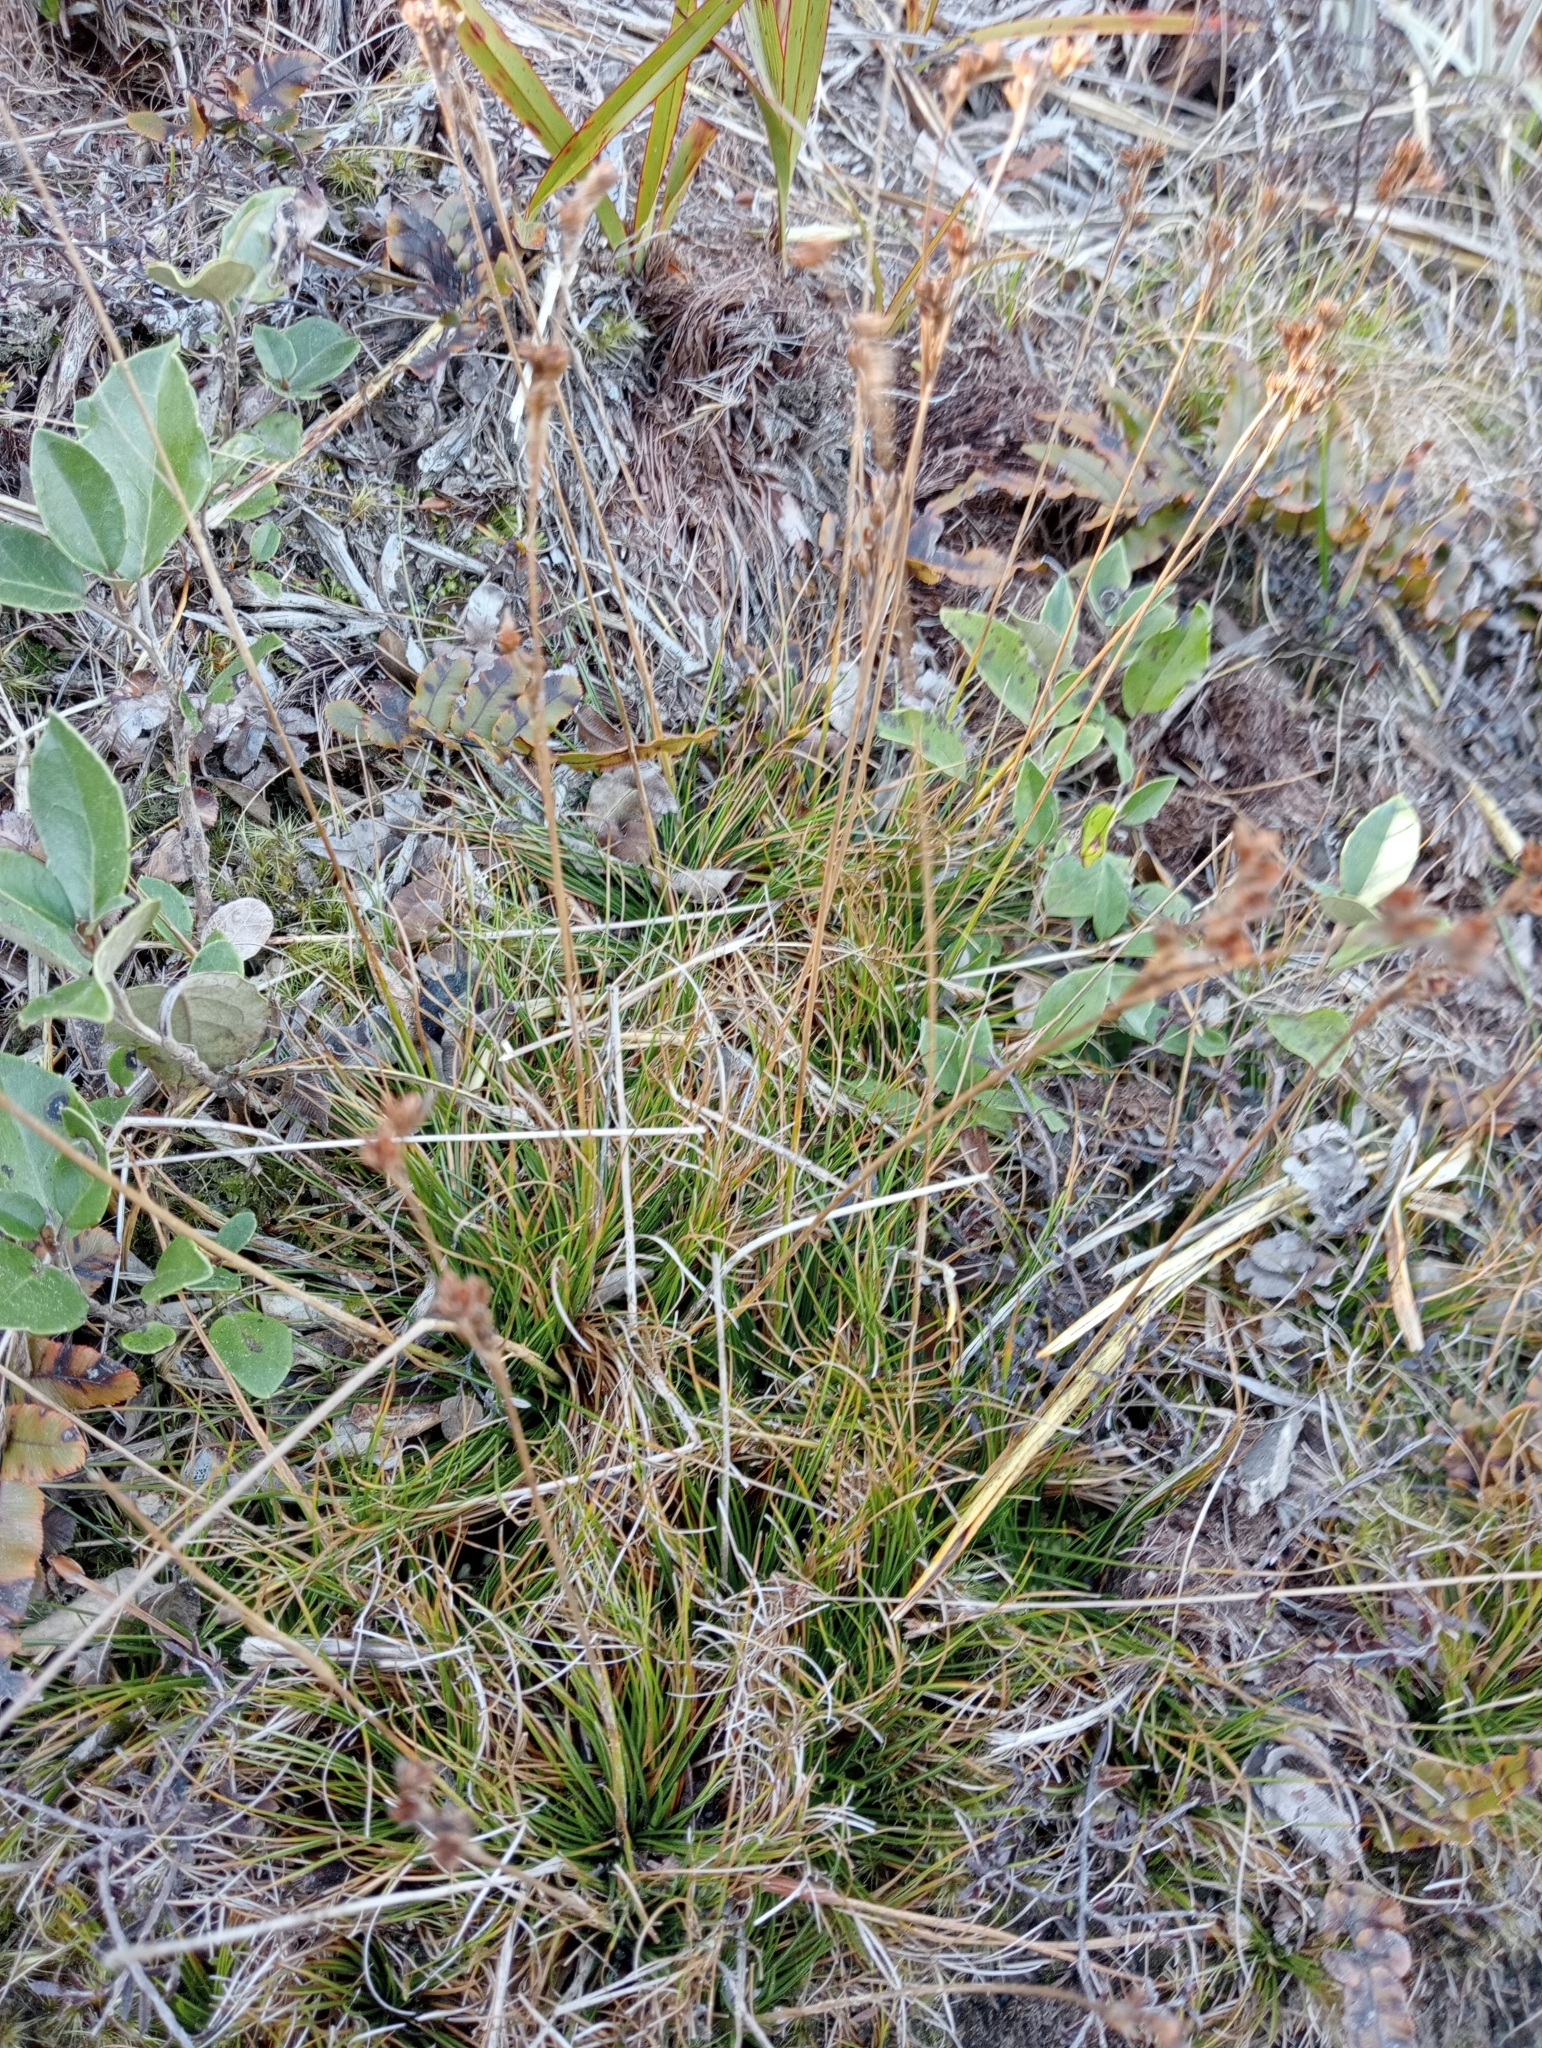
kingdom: Plantae
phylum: Tracheophyta
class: Liliopsida
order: Poales
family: Juncaceae
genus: Juncus
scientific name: Juncus squarrosus
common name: Heath rush
